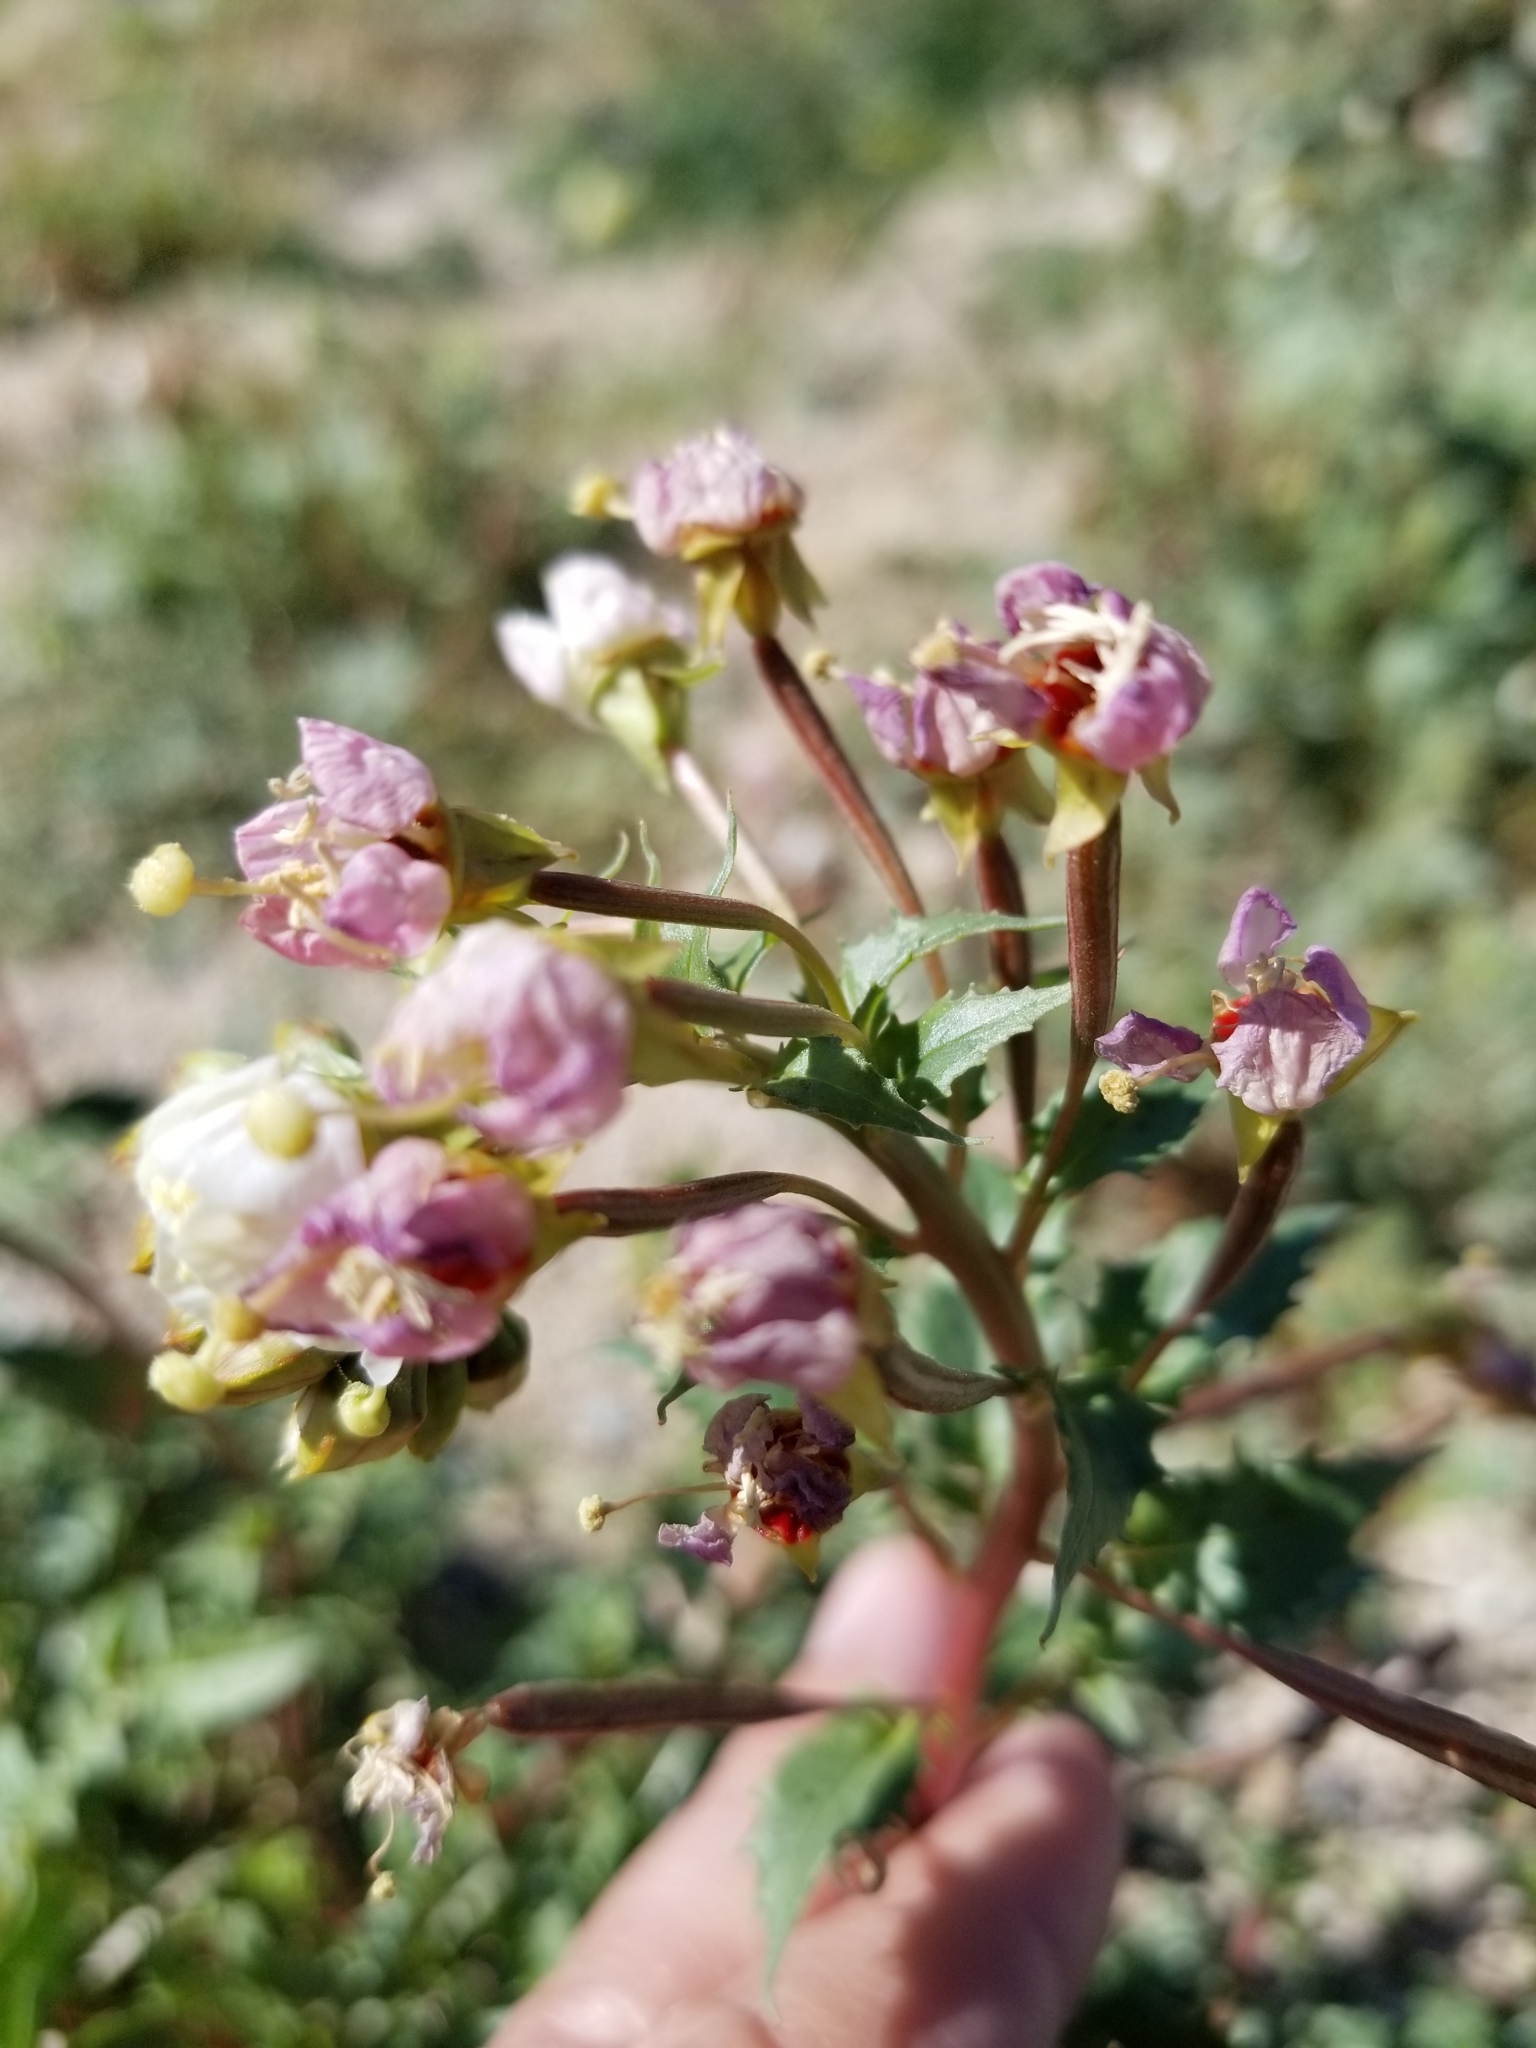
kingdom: Plantae
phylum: Tracheophyta
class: Magnoliopsida
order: Myrtales
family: Onagraceae
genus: Chylismia
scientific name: Chylismia claviformis
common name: Browneyes
